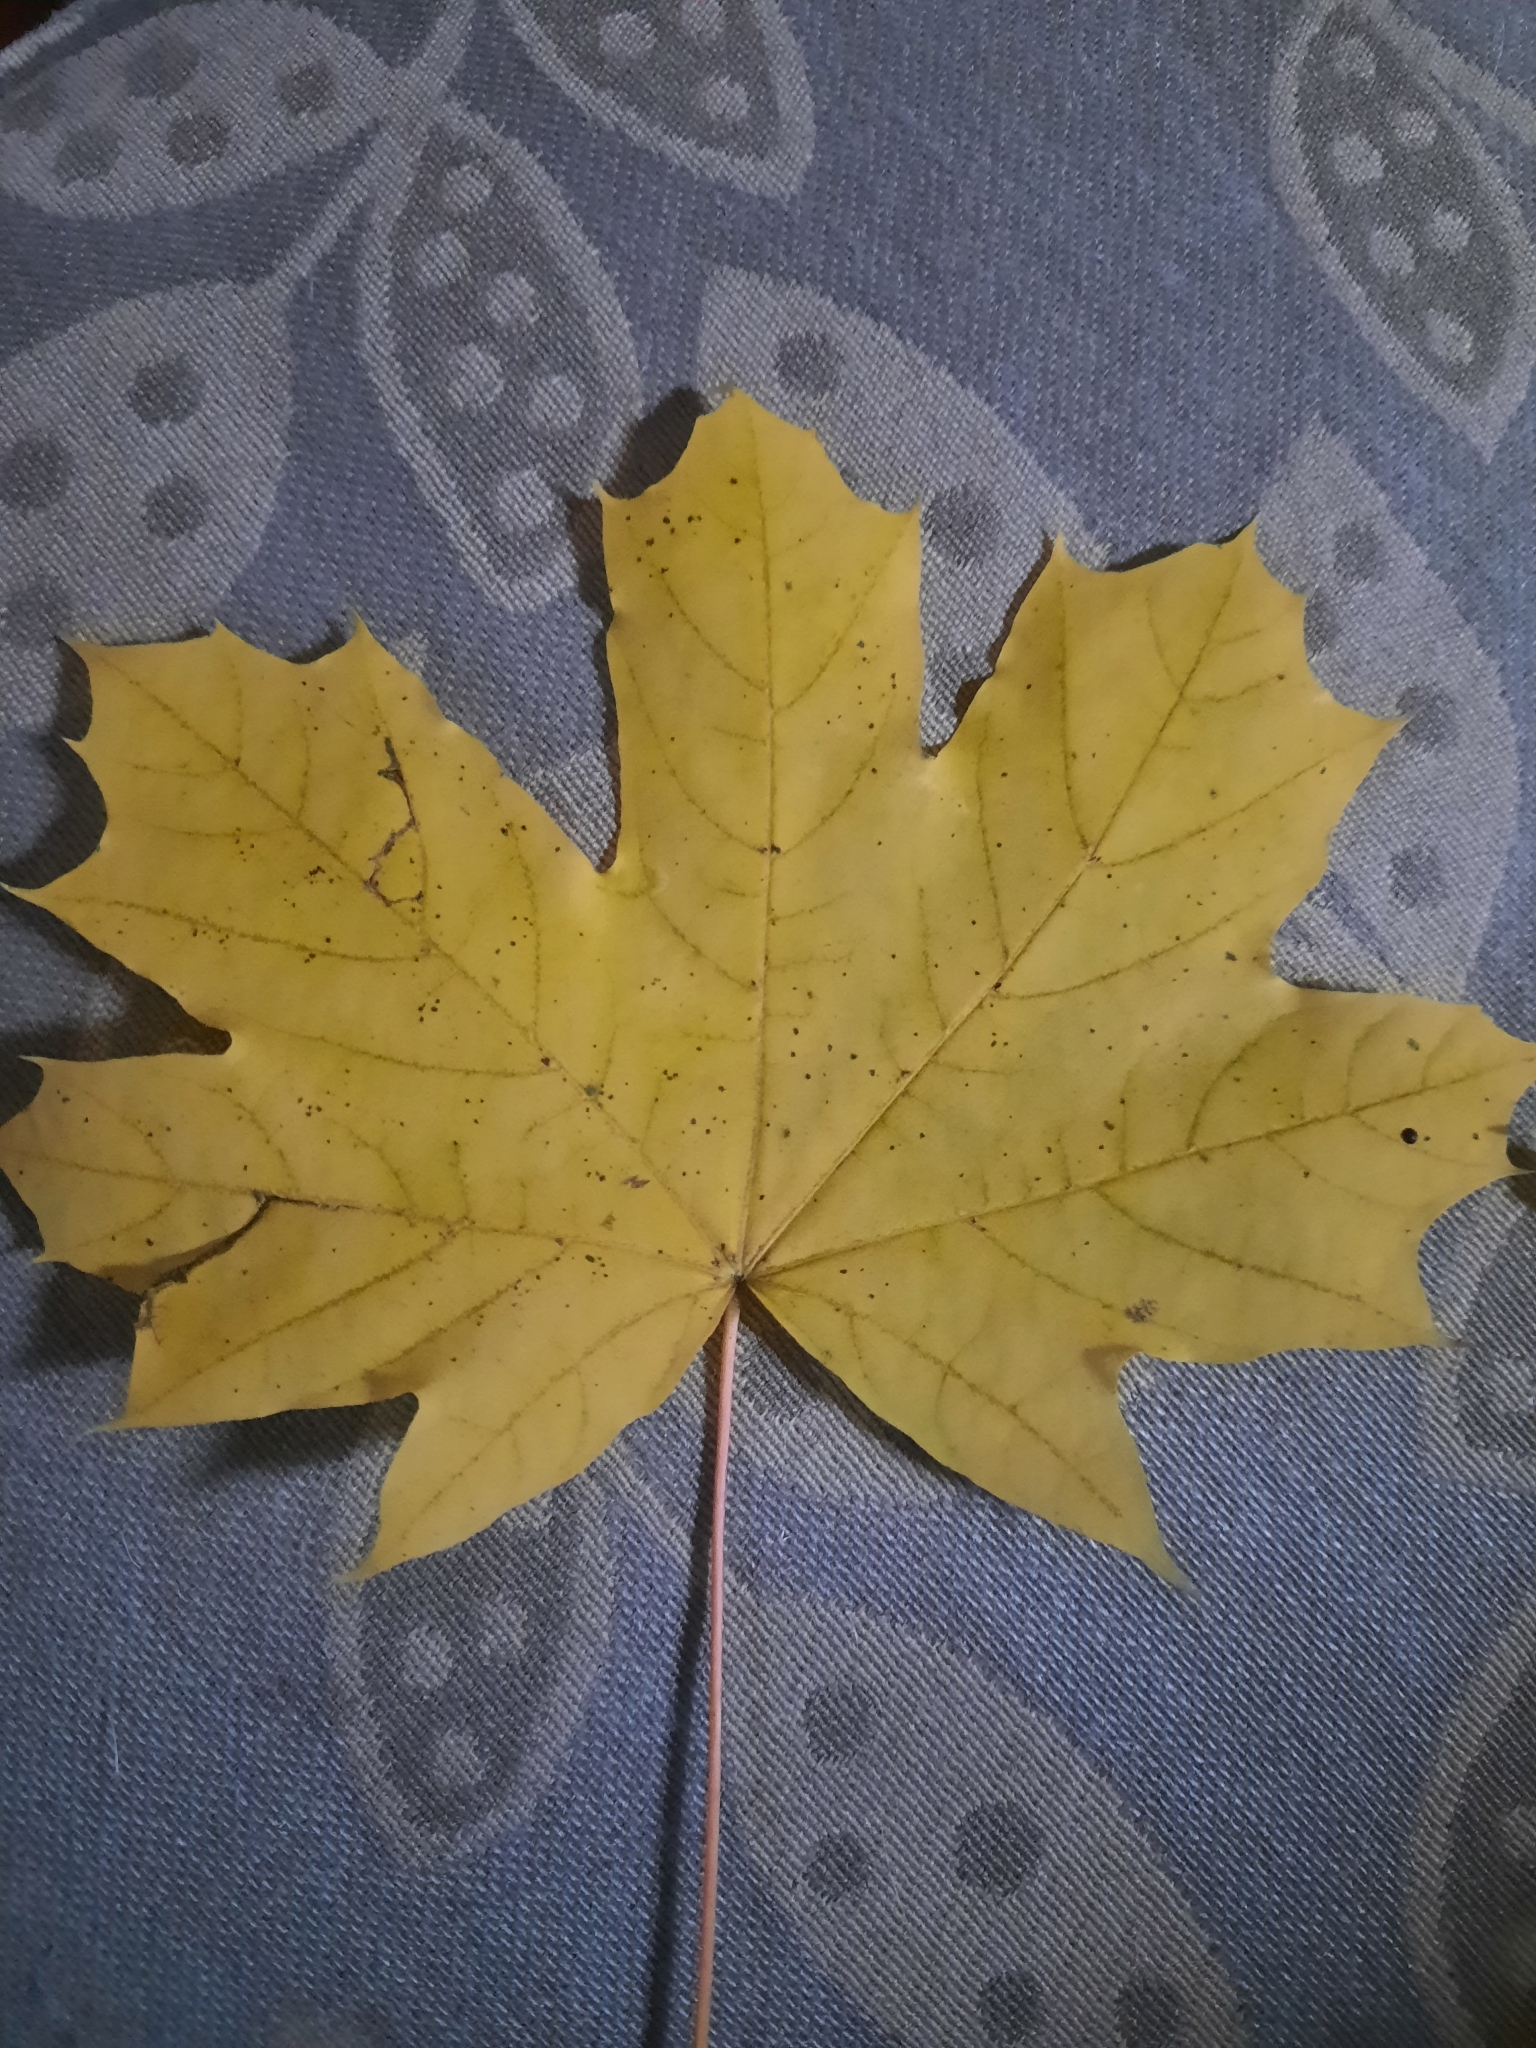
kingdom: Plantae
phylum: Tracheophyta
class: Magnoliopsida
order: Sapindales
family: Sapindaceae
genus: Acer
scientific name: Acer platanoides
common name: Norway maple
